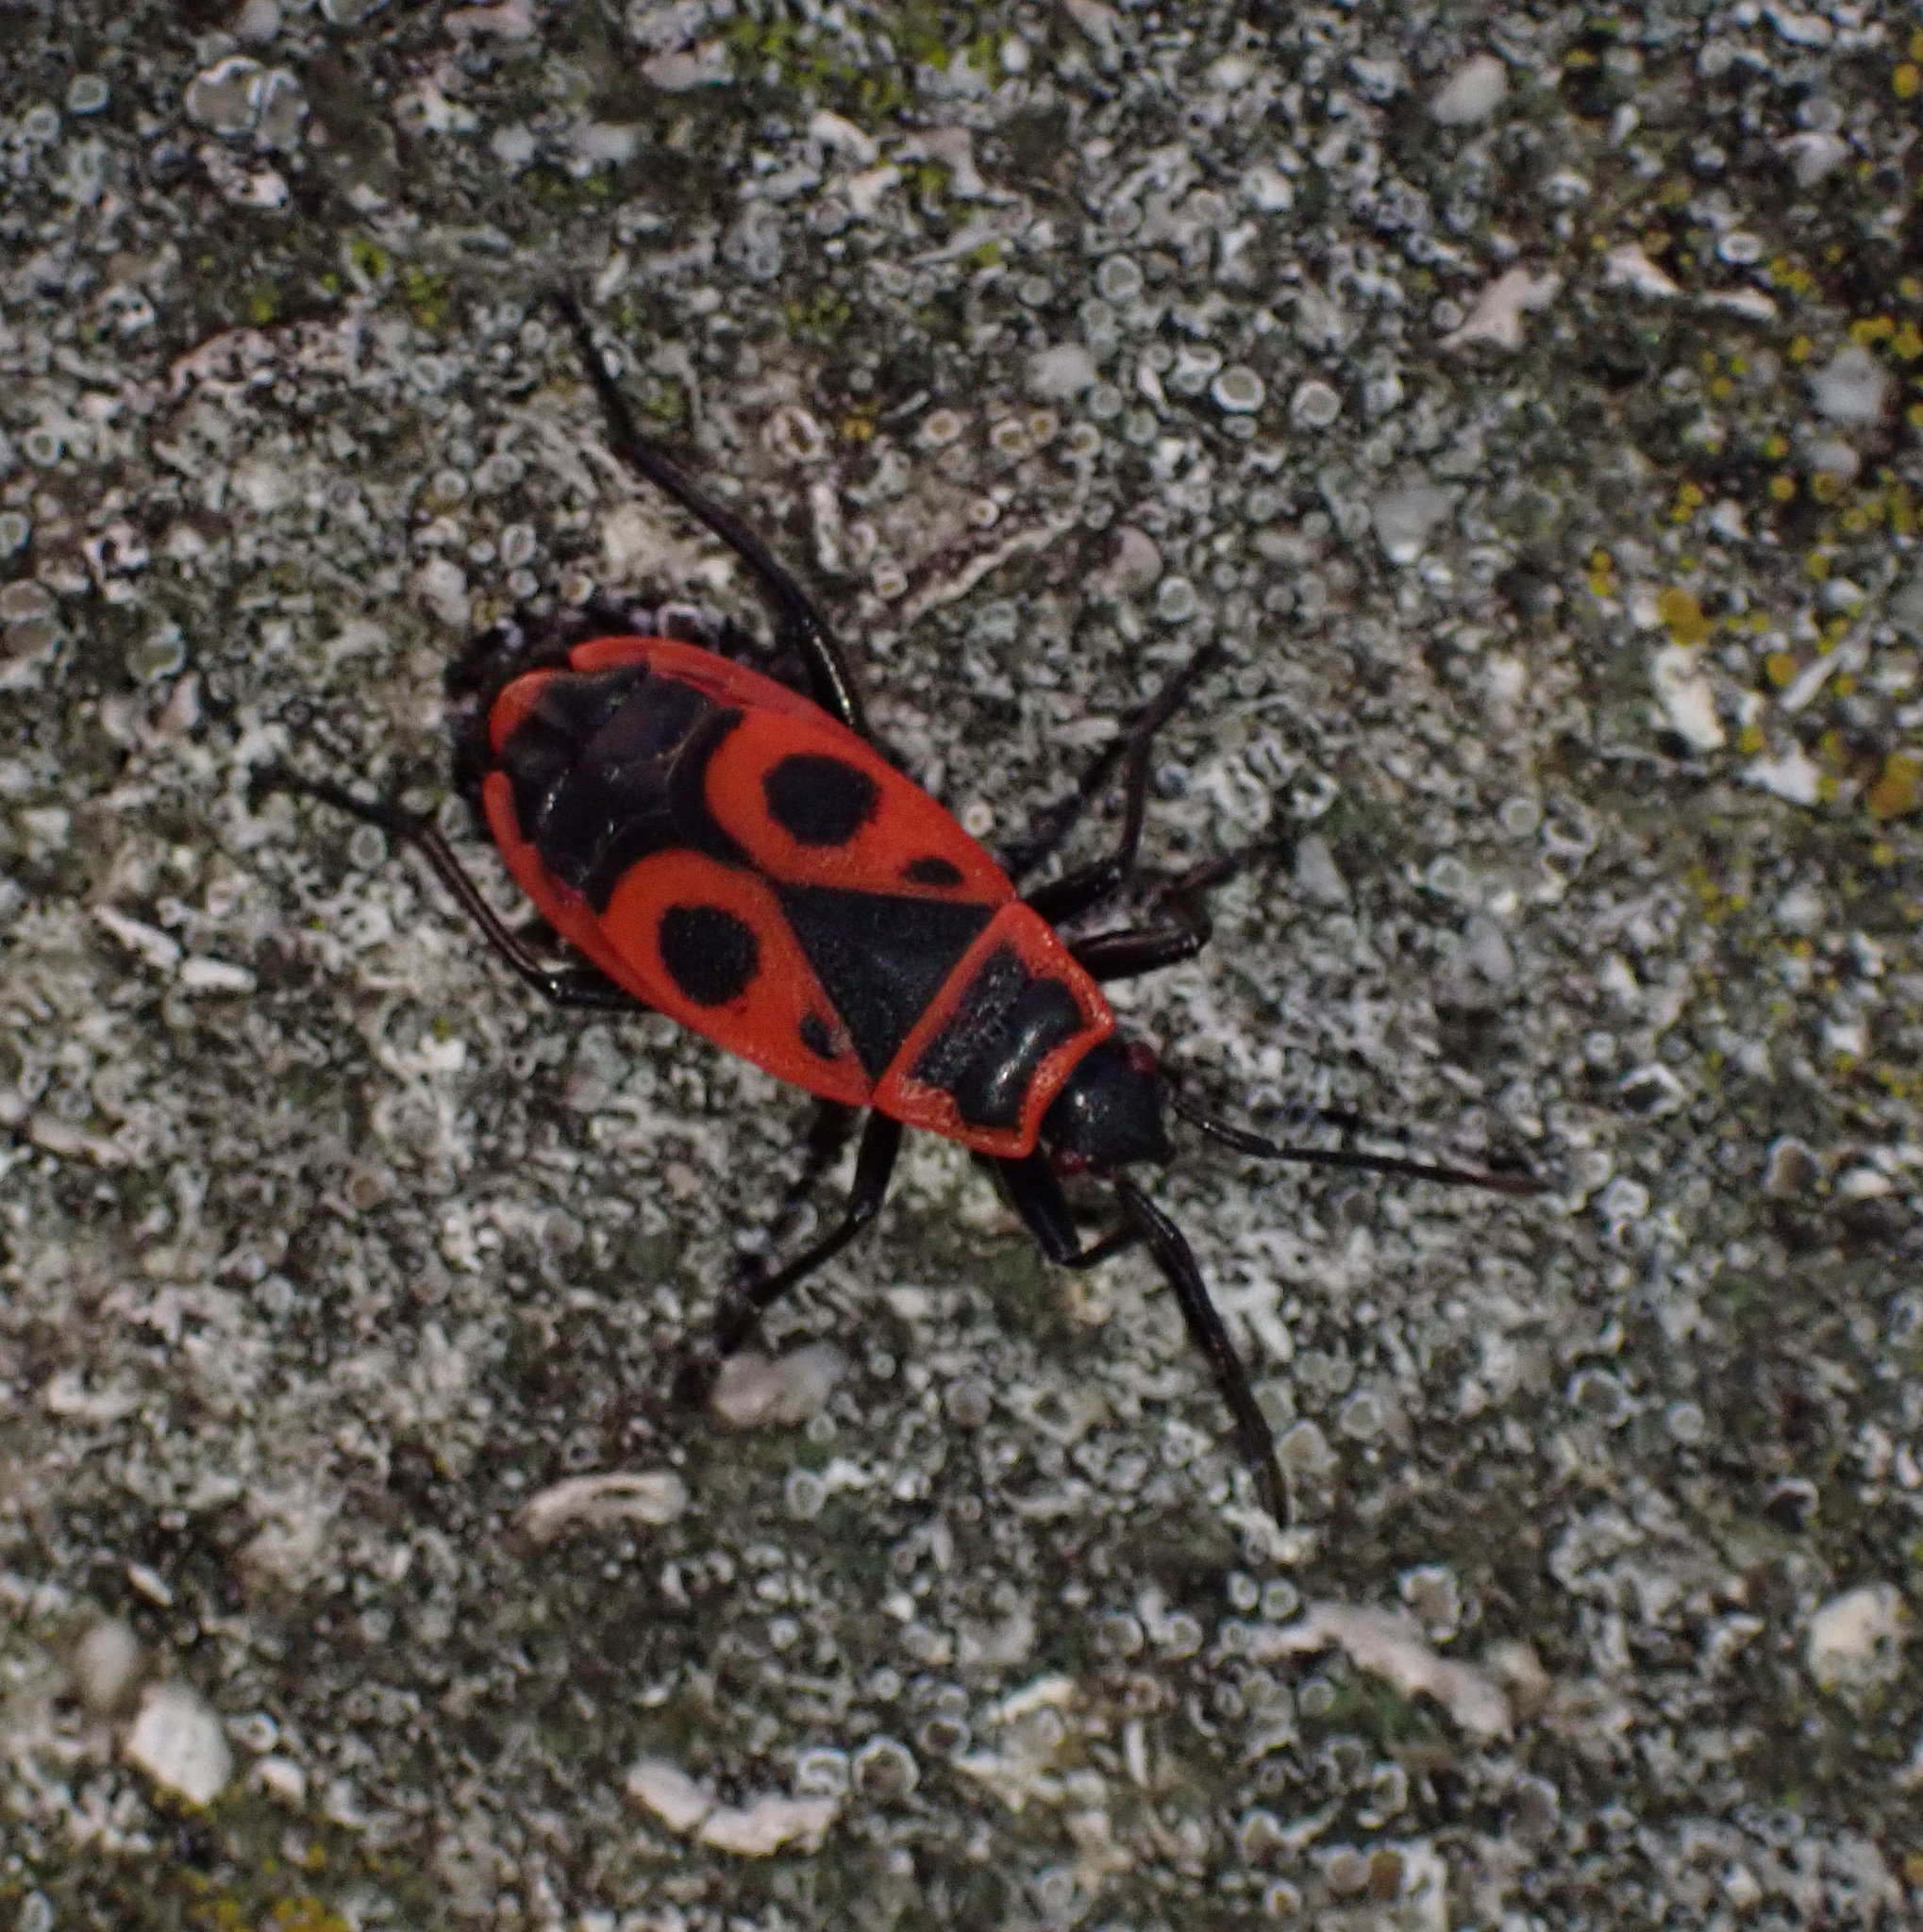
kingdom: Animalia
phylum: Arthropoda
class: Insecta
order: Hemiptera
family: Pyrrhocoridae
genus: Pyrrhocoris
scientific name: Pyrrhocoris apterus
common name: Firebug
